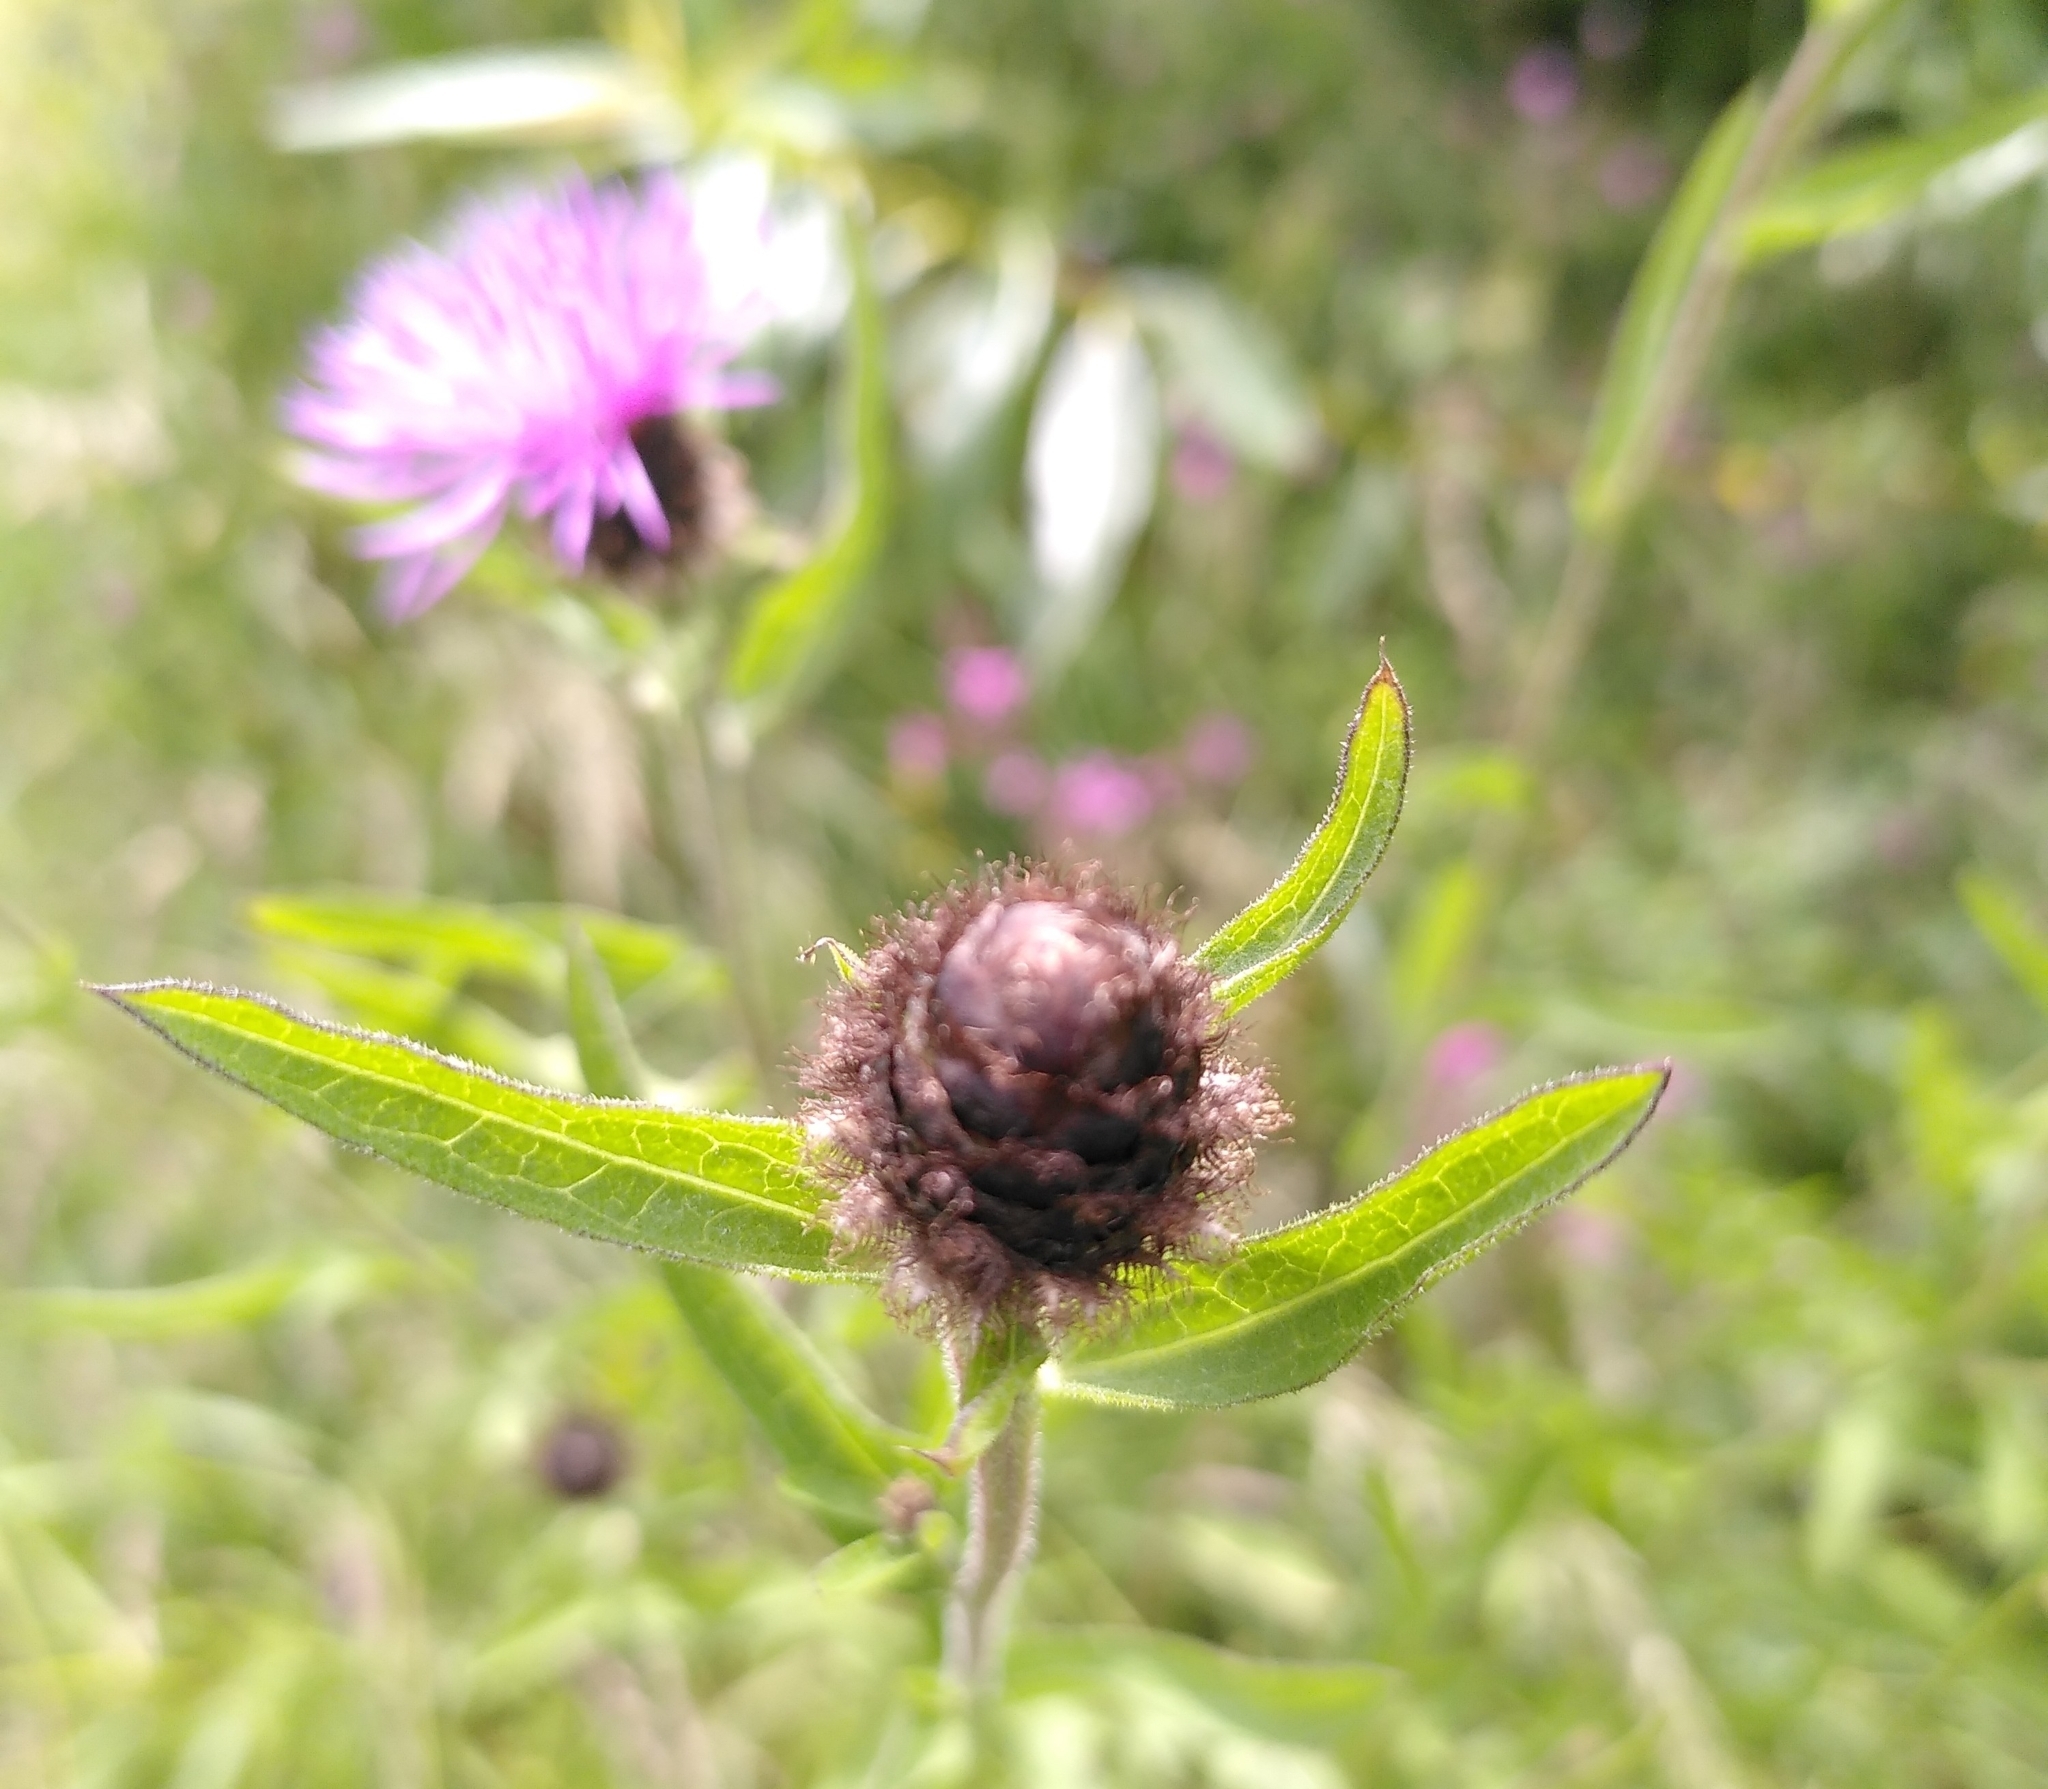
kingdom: Plantae
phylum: Tracheophyta
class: Magnoliopsida
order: Asterales
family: Asteraceae
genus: Centaurea
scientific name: Centaurea nigra
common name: Lesser knapweed
